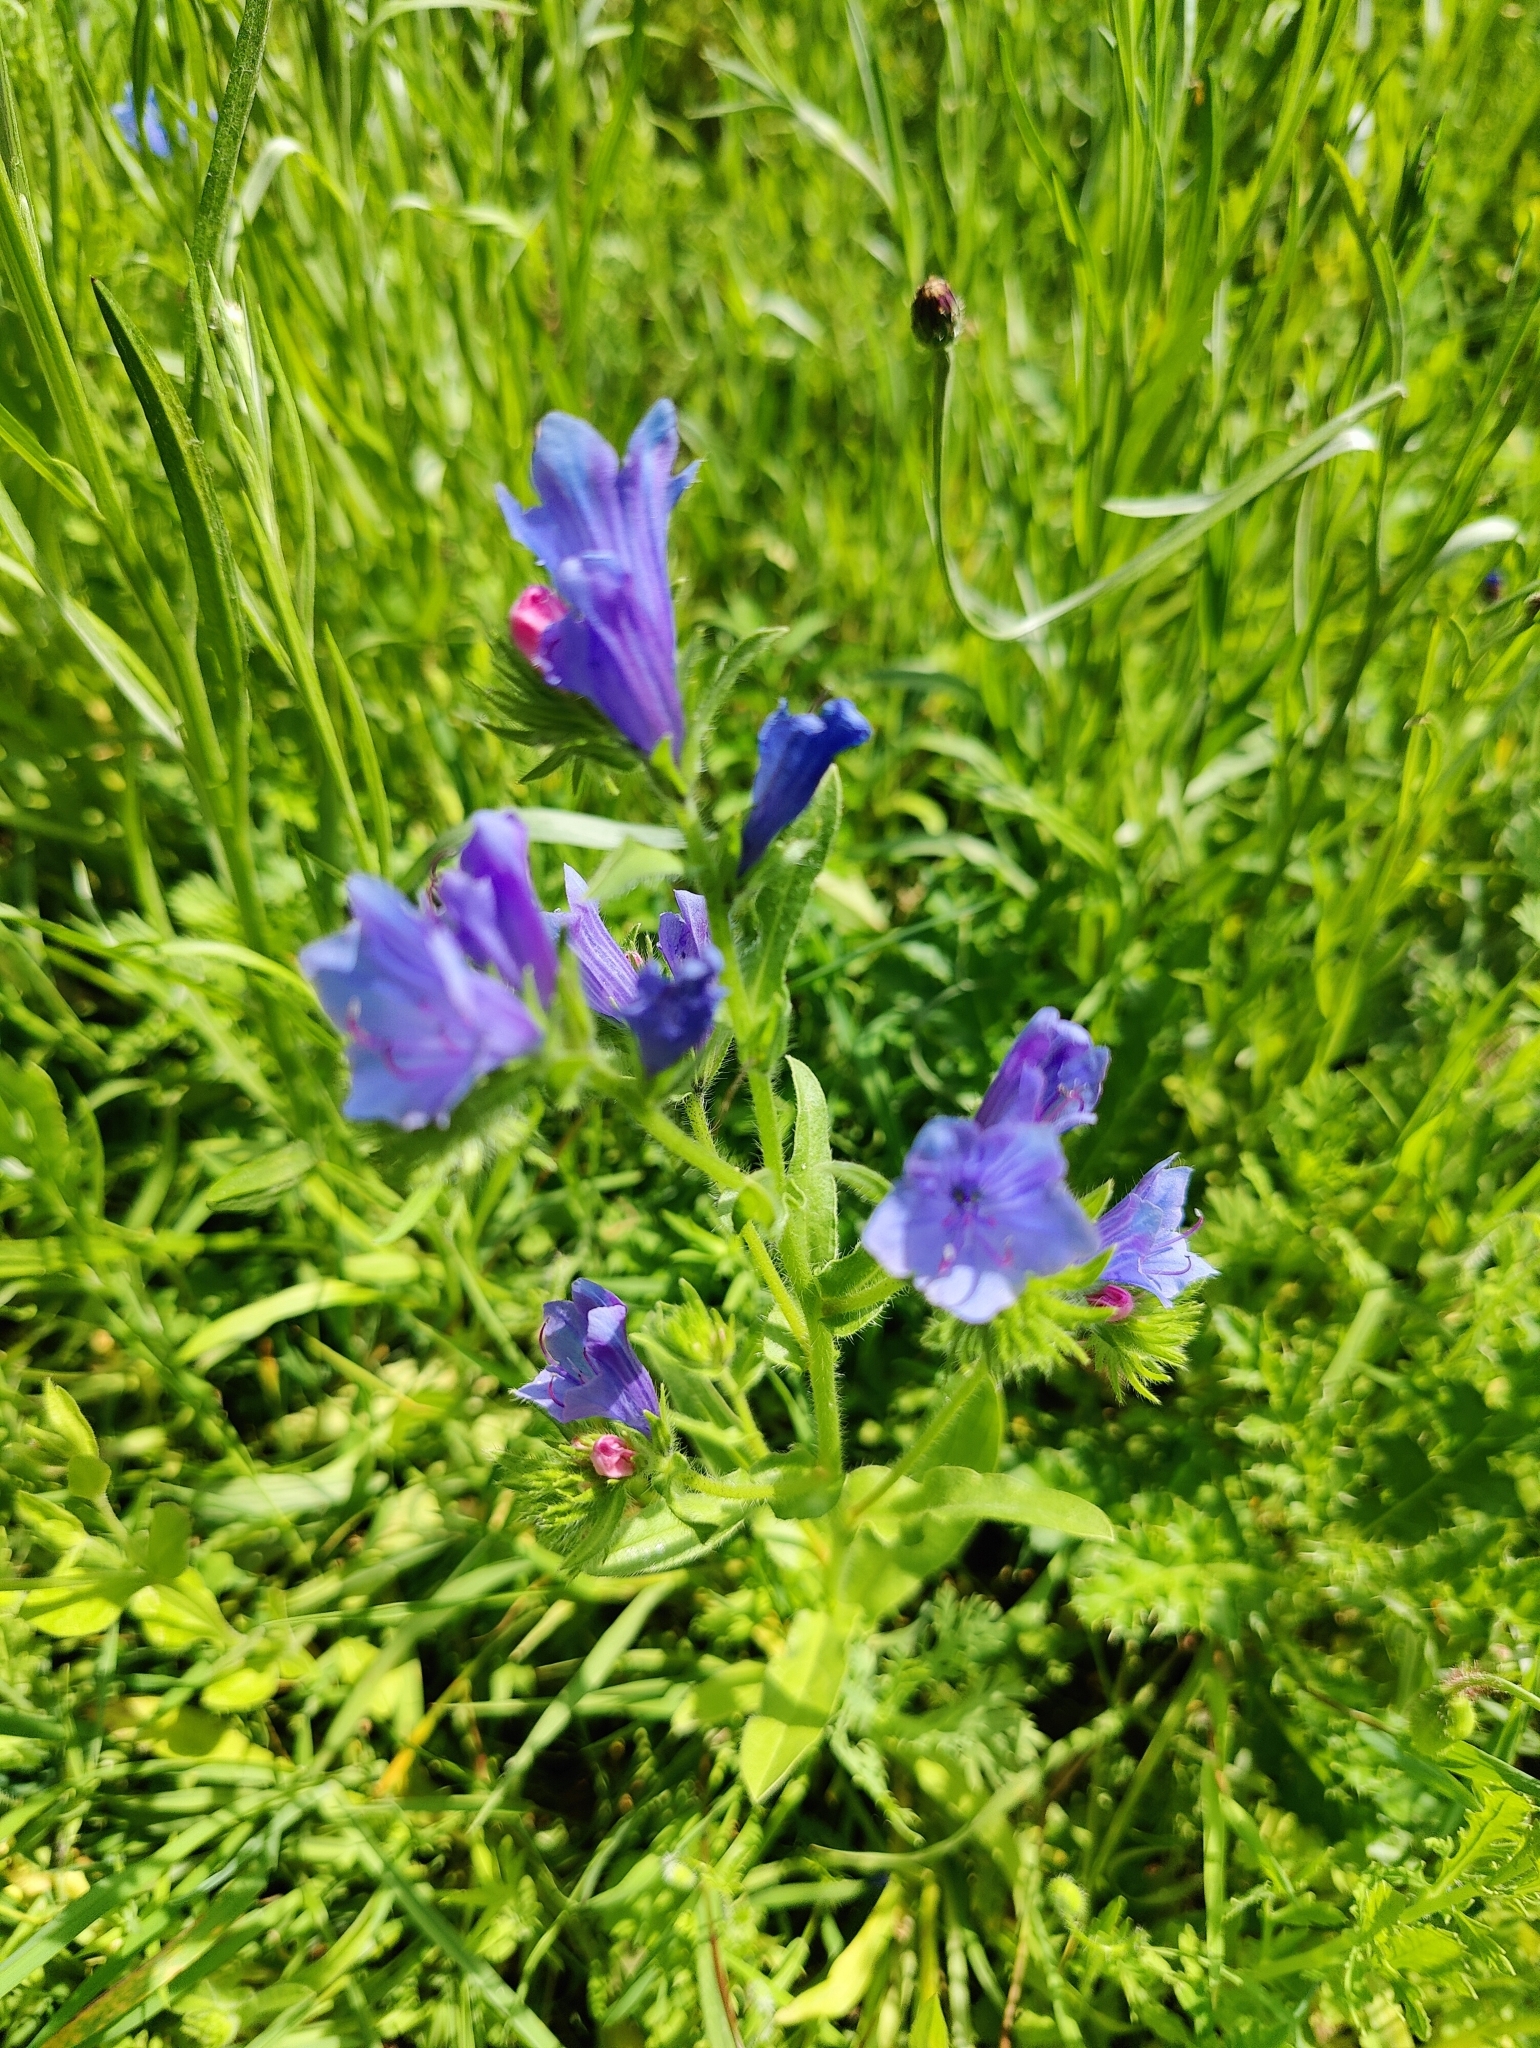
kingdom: Plantae
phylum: Tracheophyta
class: Magnoliopsida
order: Boraginales
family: Boraginaceae
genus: Echium
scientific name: Echium plantagineum
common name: Purple viper's-bugloss
